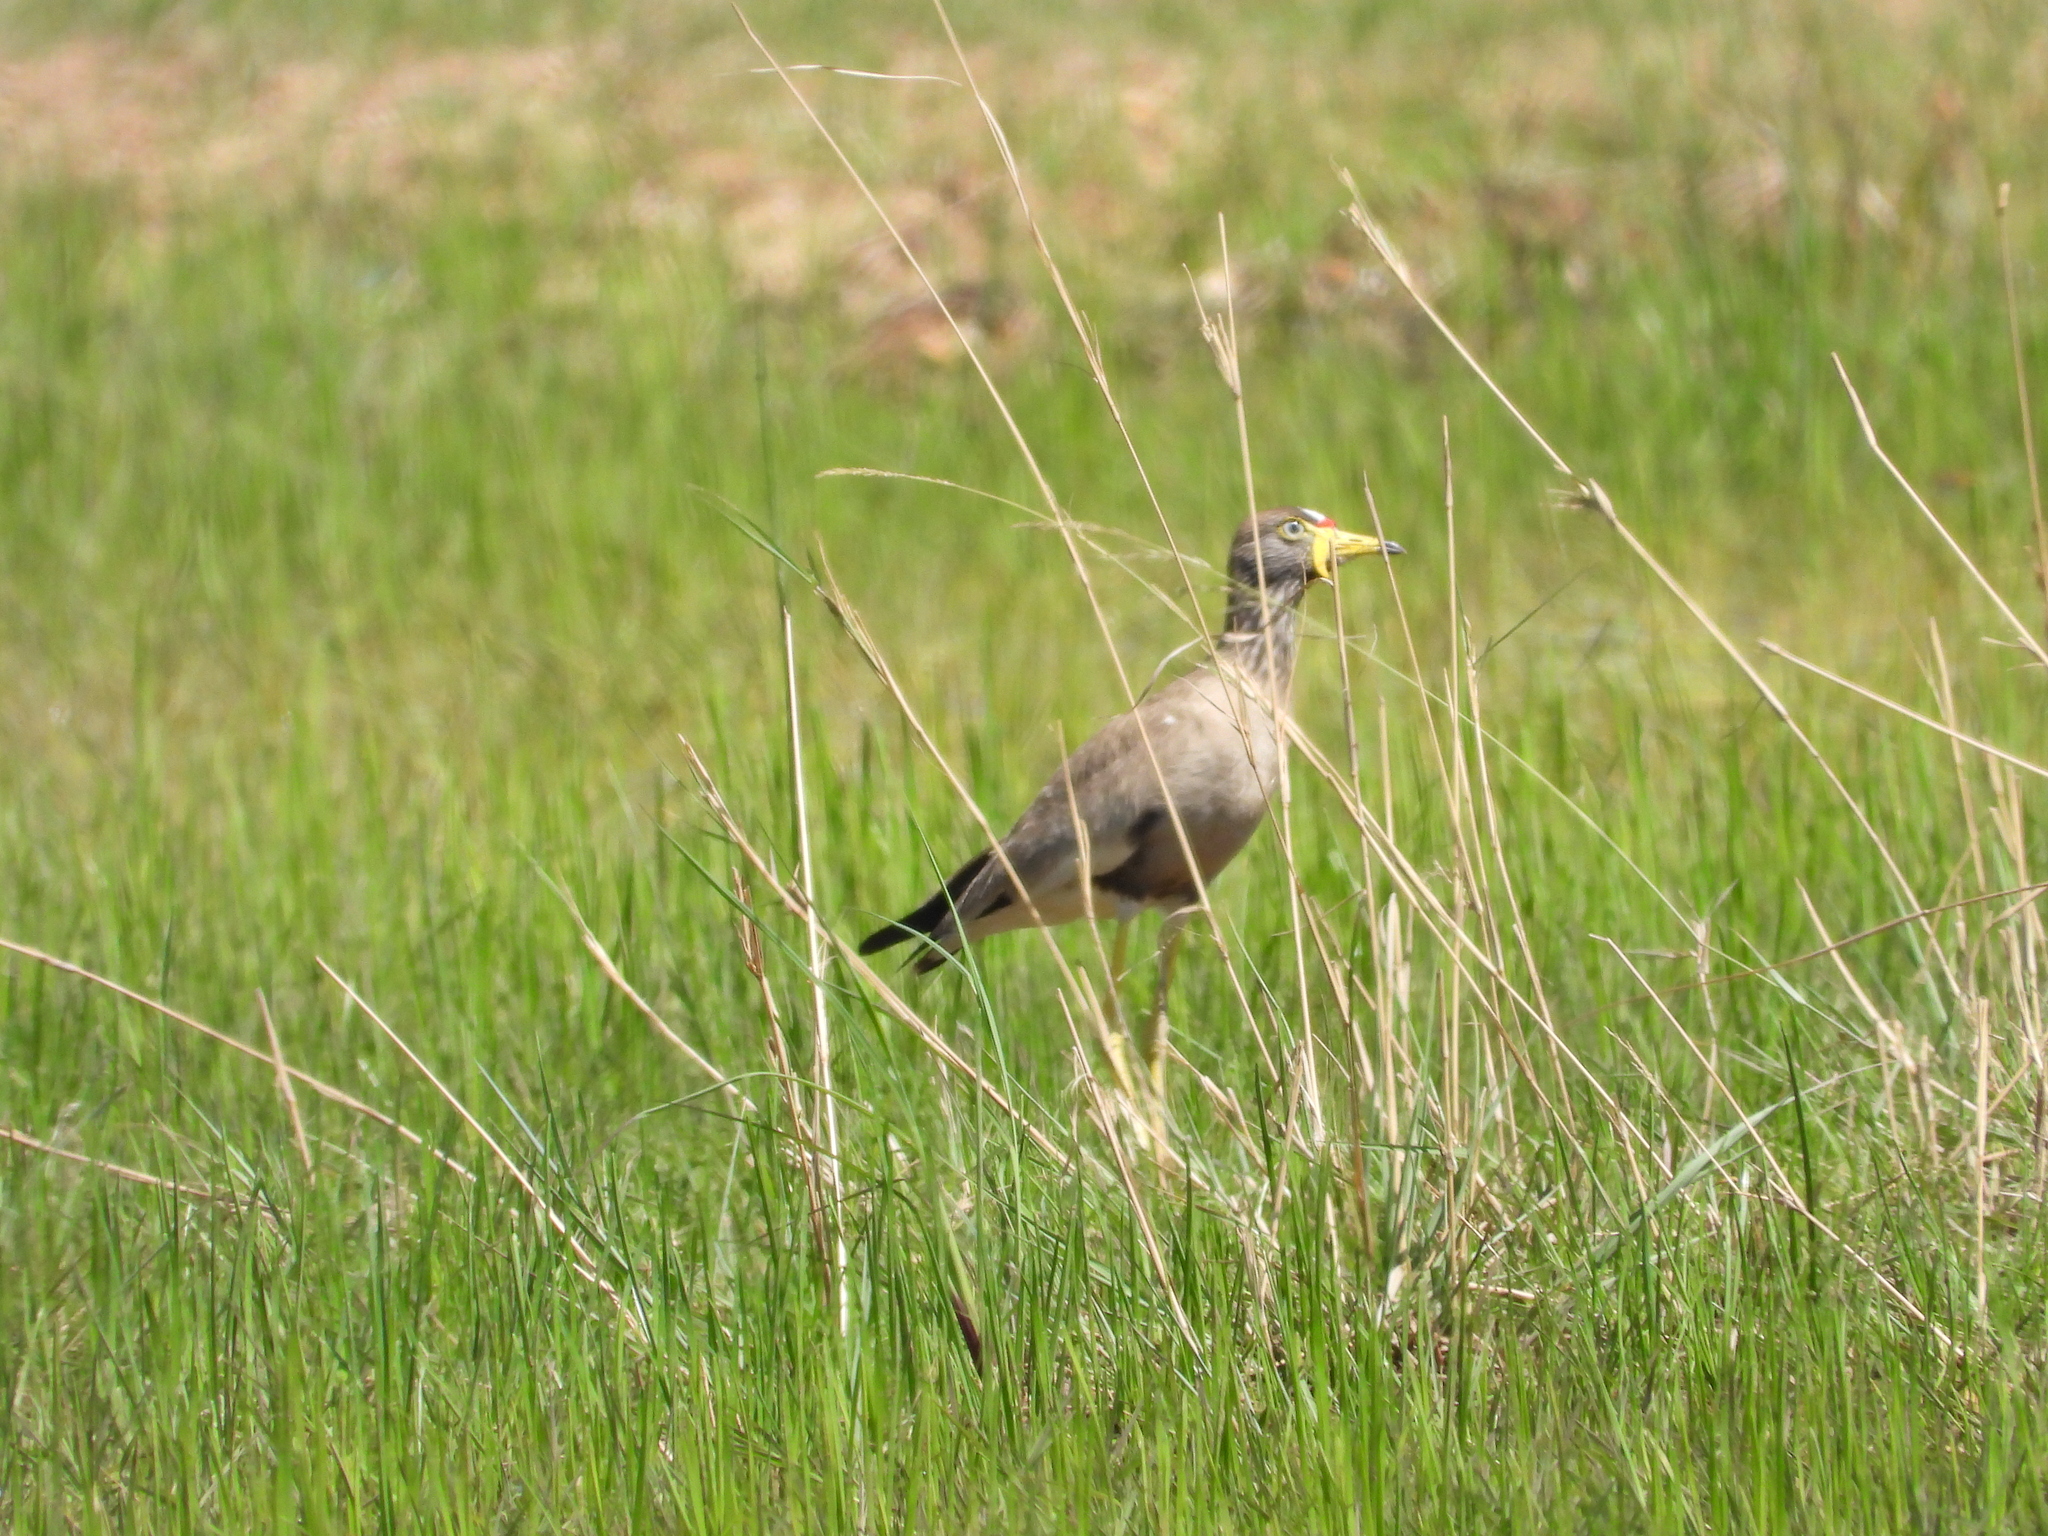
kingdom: Animalia
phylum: Chordata
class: Aves
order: Charadriiformes
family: Charadriidae
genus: Vanellus
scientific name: Vanellus senegallus
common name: African wattled lapwing
